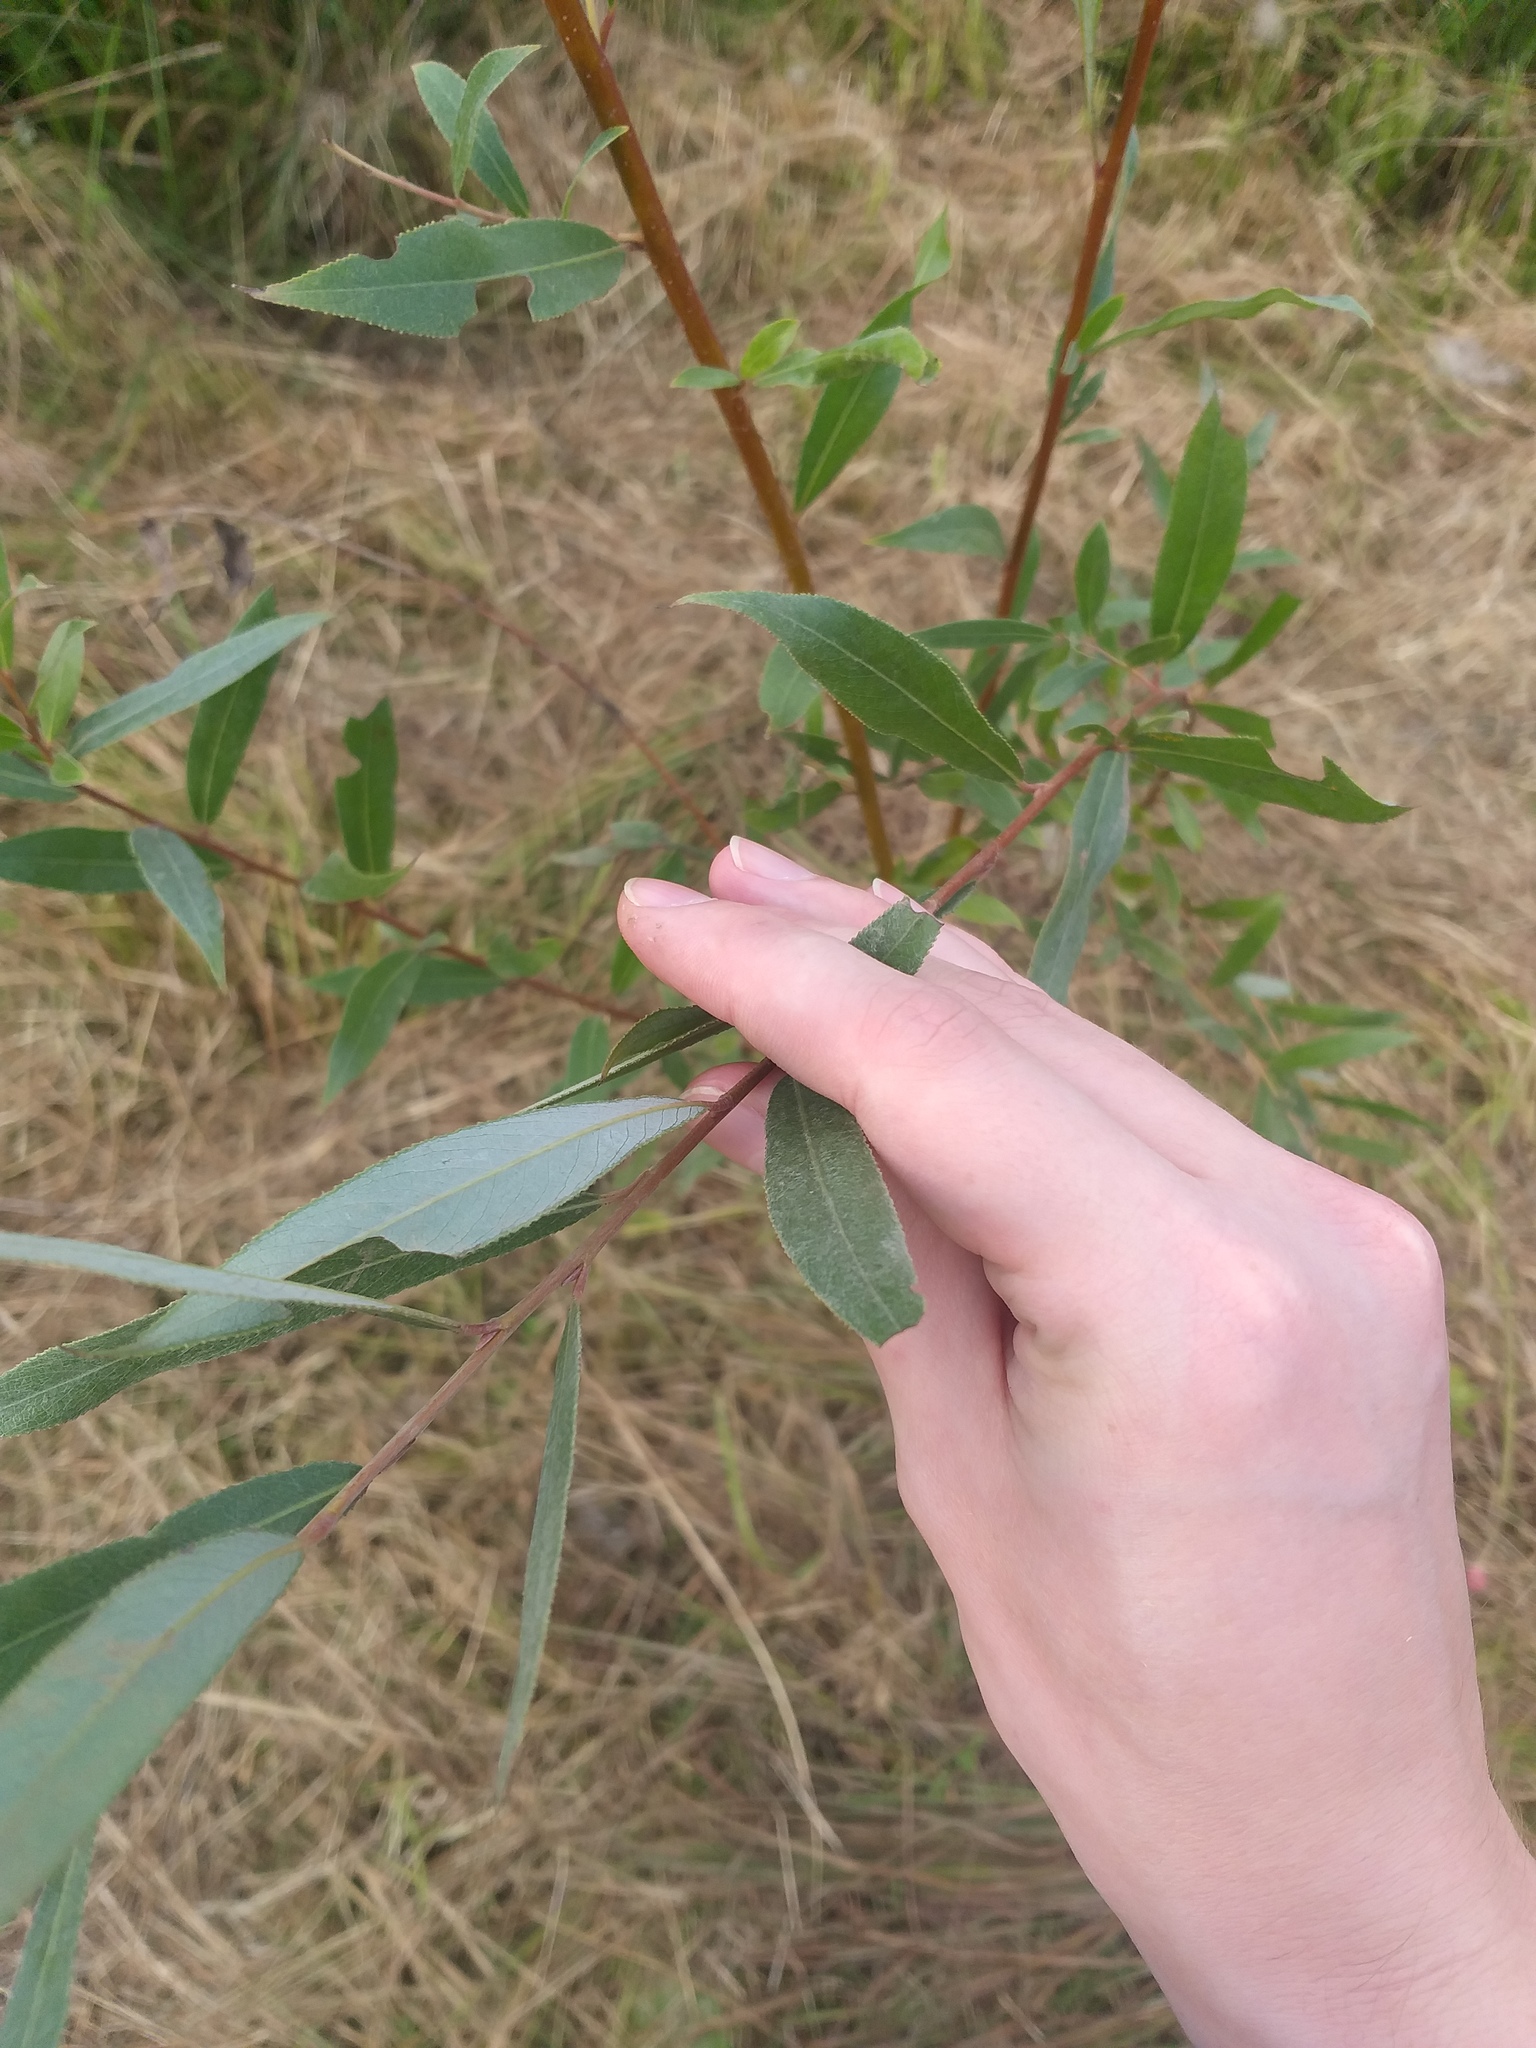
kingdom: Plantae
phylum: Tracheophyta
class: Magnoliopsida
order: Malpighiales
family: Salicaceae
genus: Salix
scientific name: Salix alba
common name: White willow
